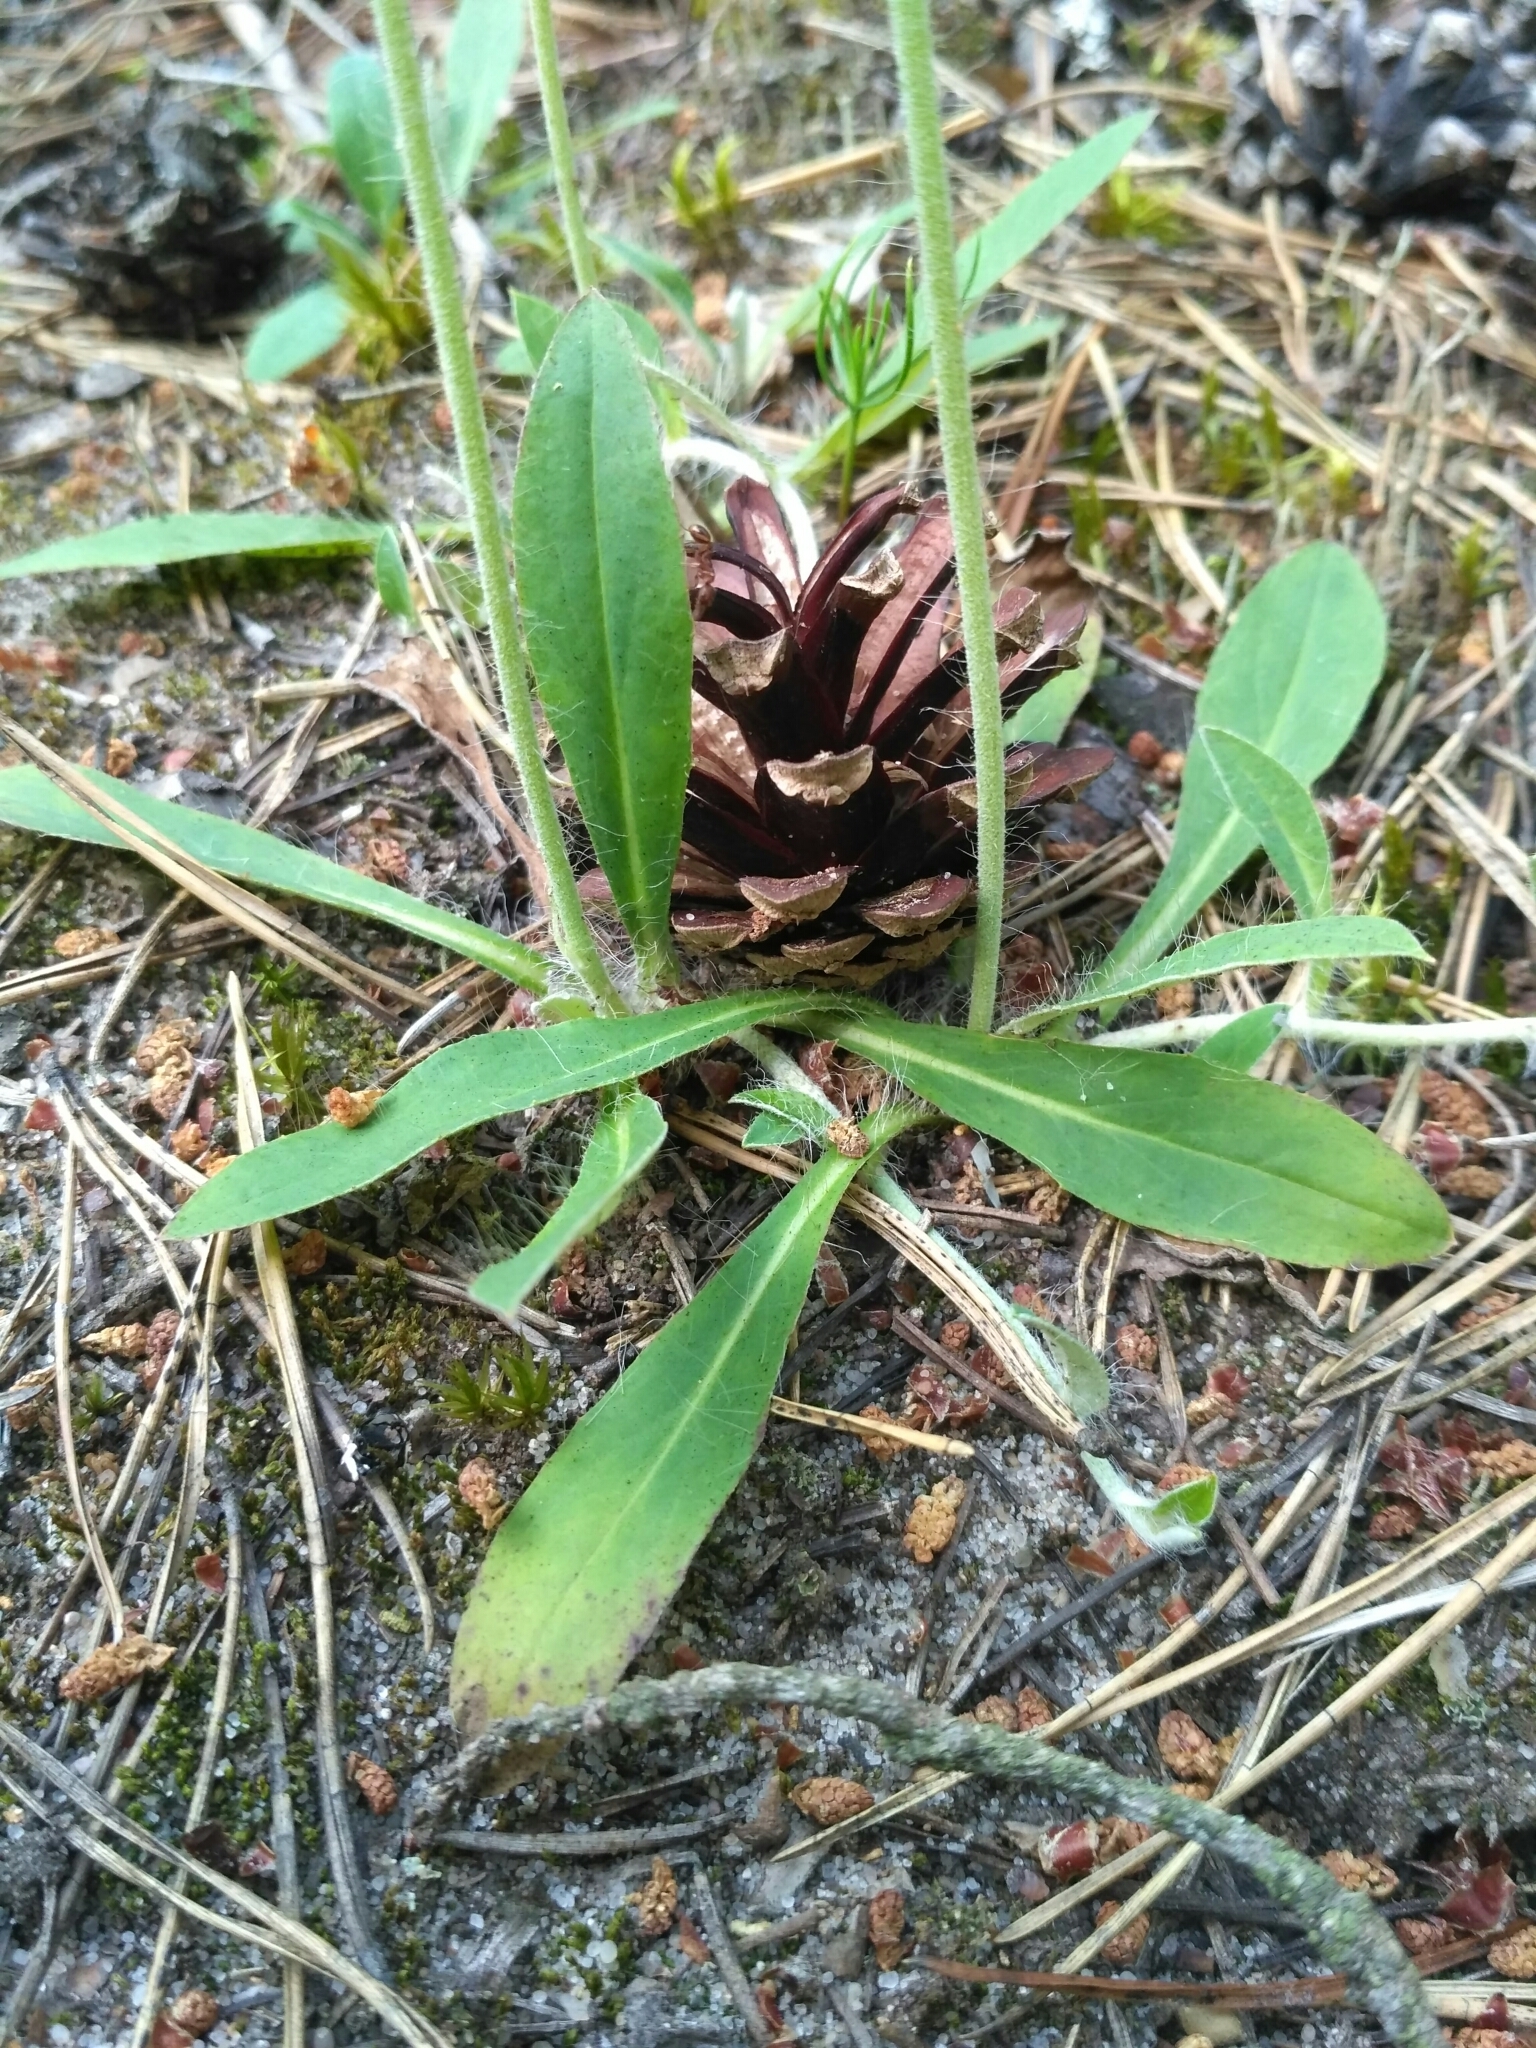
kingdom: Plantae
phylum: Tracheophyta
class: Magnoliopsida
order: Asterales
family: Asteraceae
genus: Pilosella
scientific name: Pilosella officinarum
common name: Mouse-ear hawkweed
